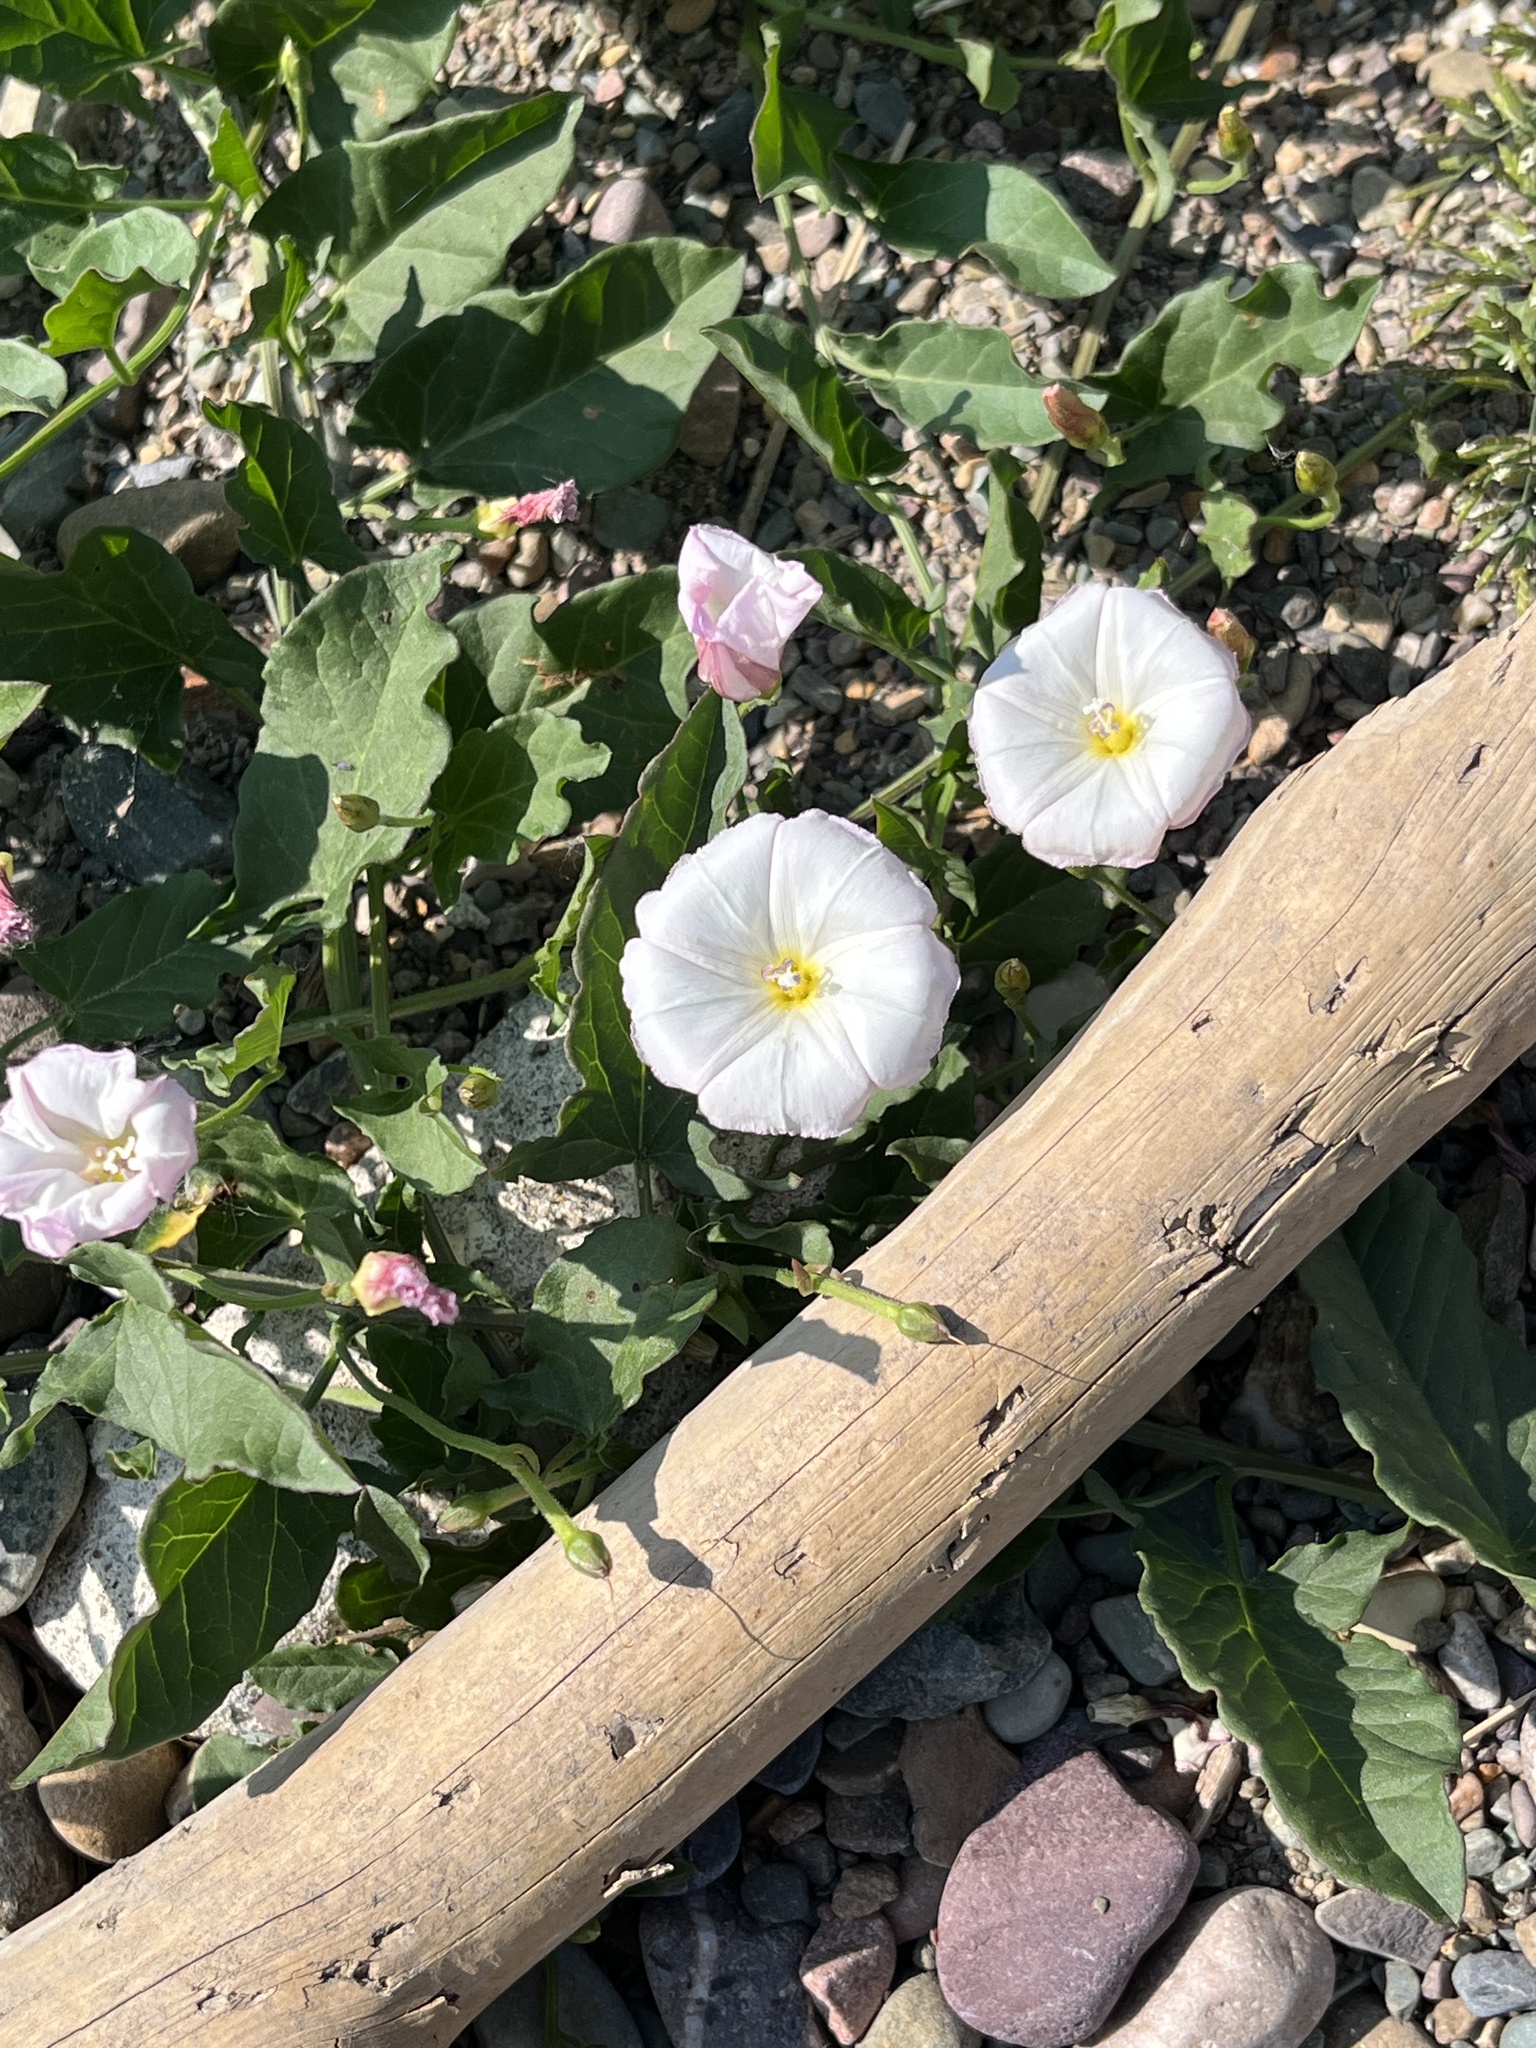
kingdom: Plantae
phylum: Tracheophyta
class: Magnoliopsida
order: Solanales
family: Convolvulaceae
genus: Convolvulus
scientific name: Convolvulus arvensis
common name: Field bindweed
